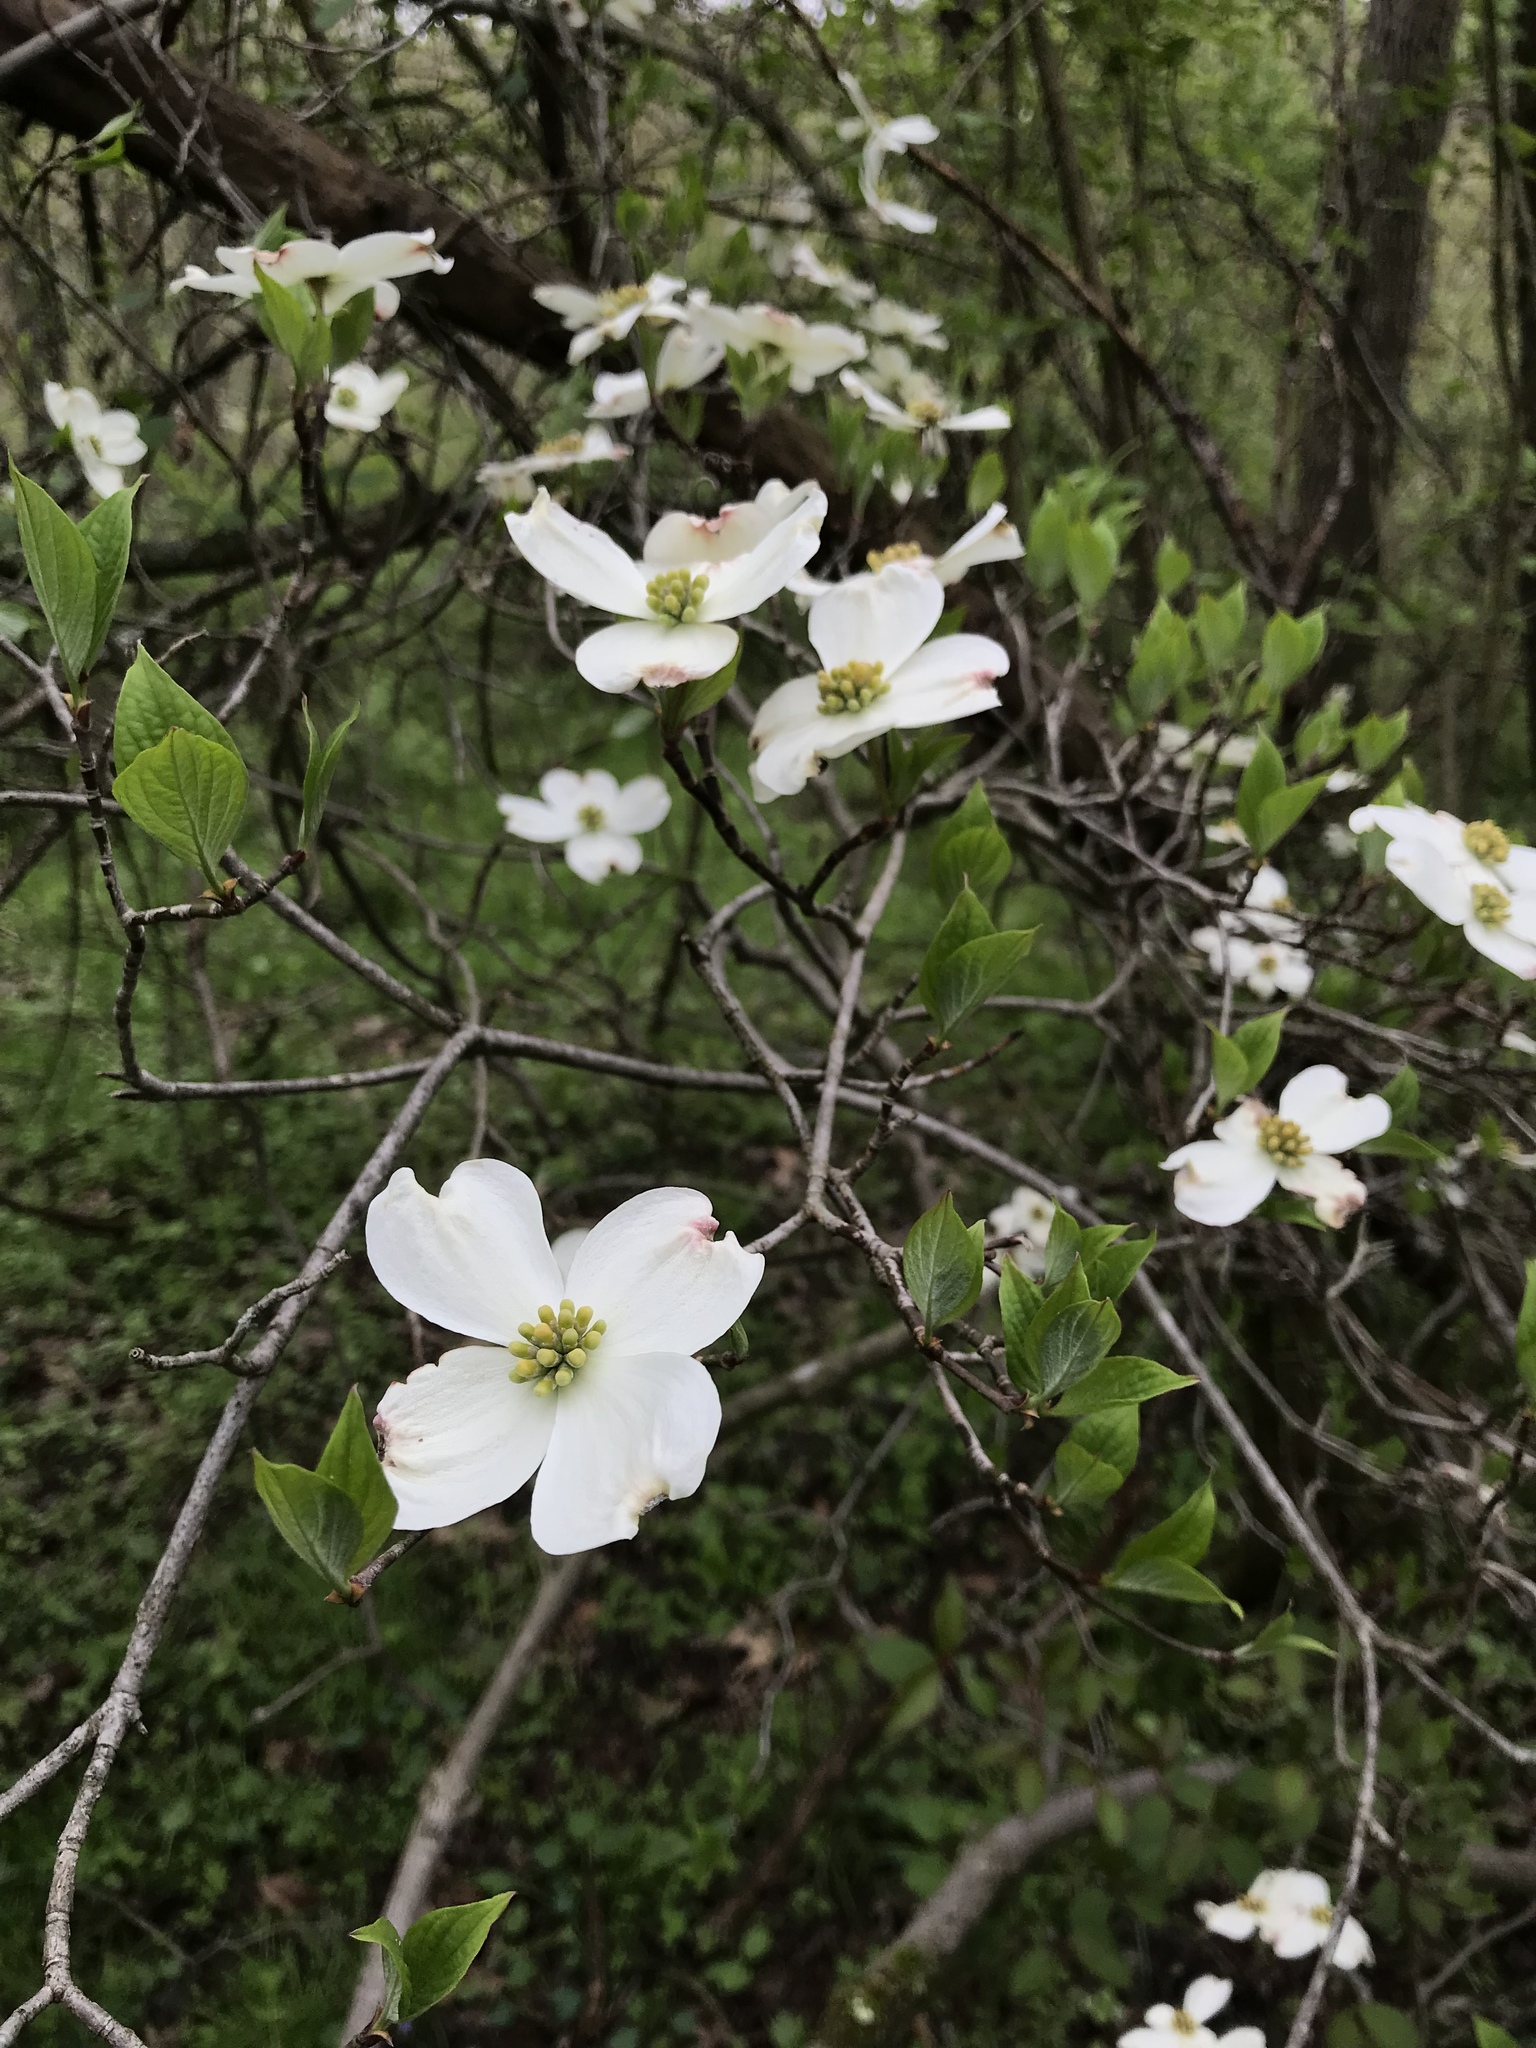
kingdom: Plantae
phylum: Tracheophyta
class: Magnoliopsida
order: Cornales
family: Cornaceae
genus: Cornus
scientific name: Cornus florida
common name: Flowering dogwood
